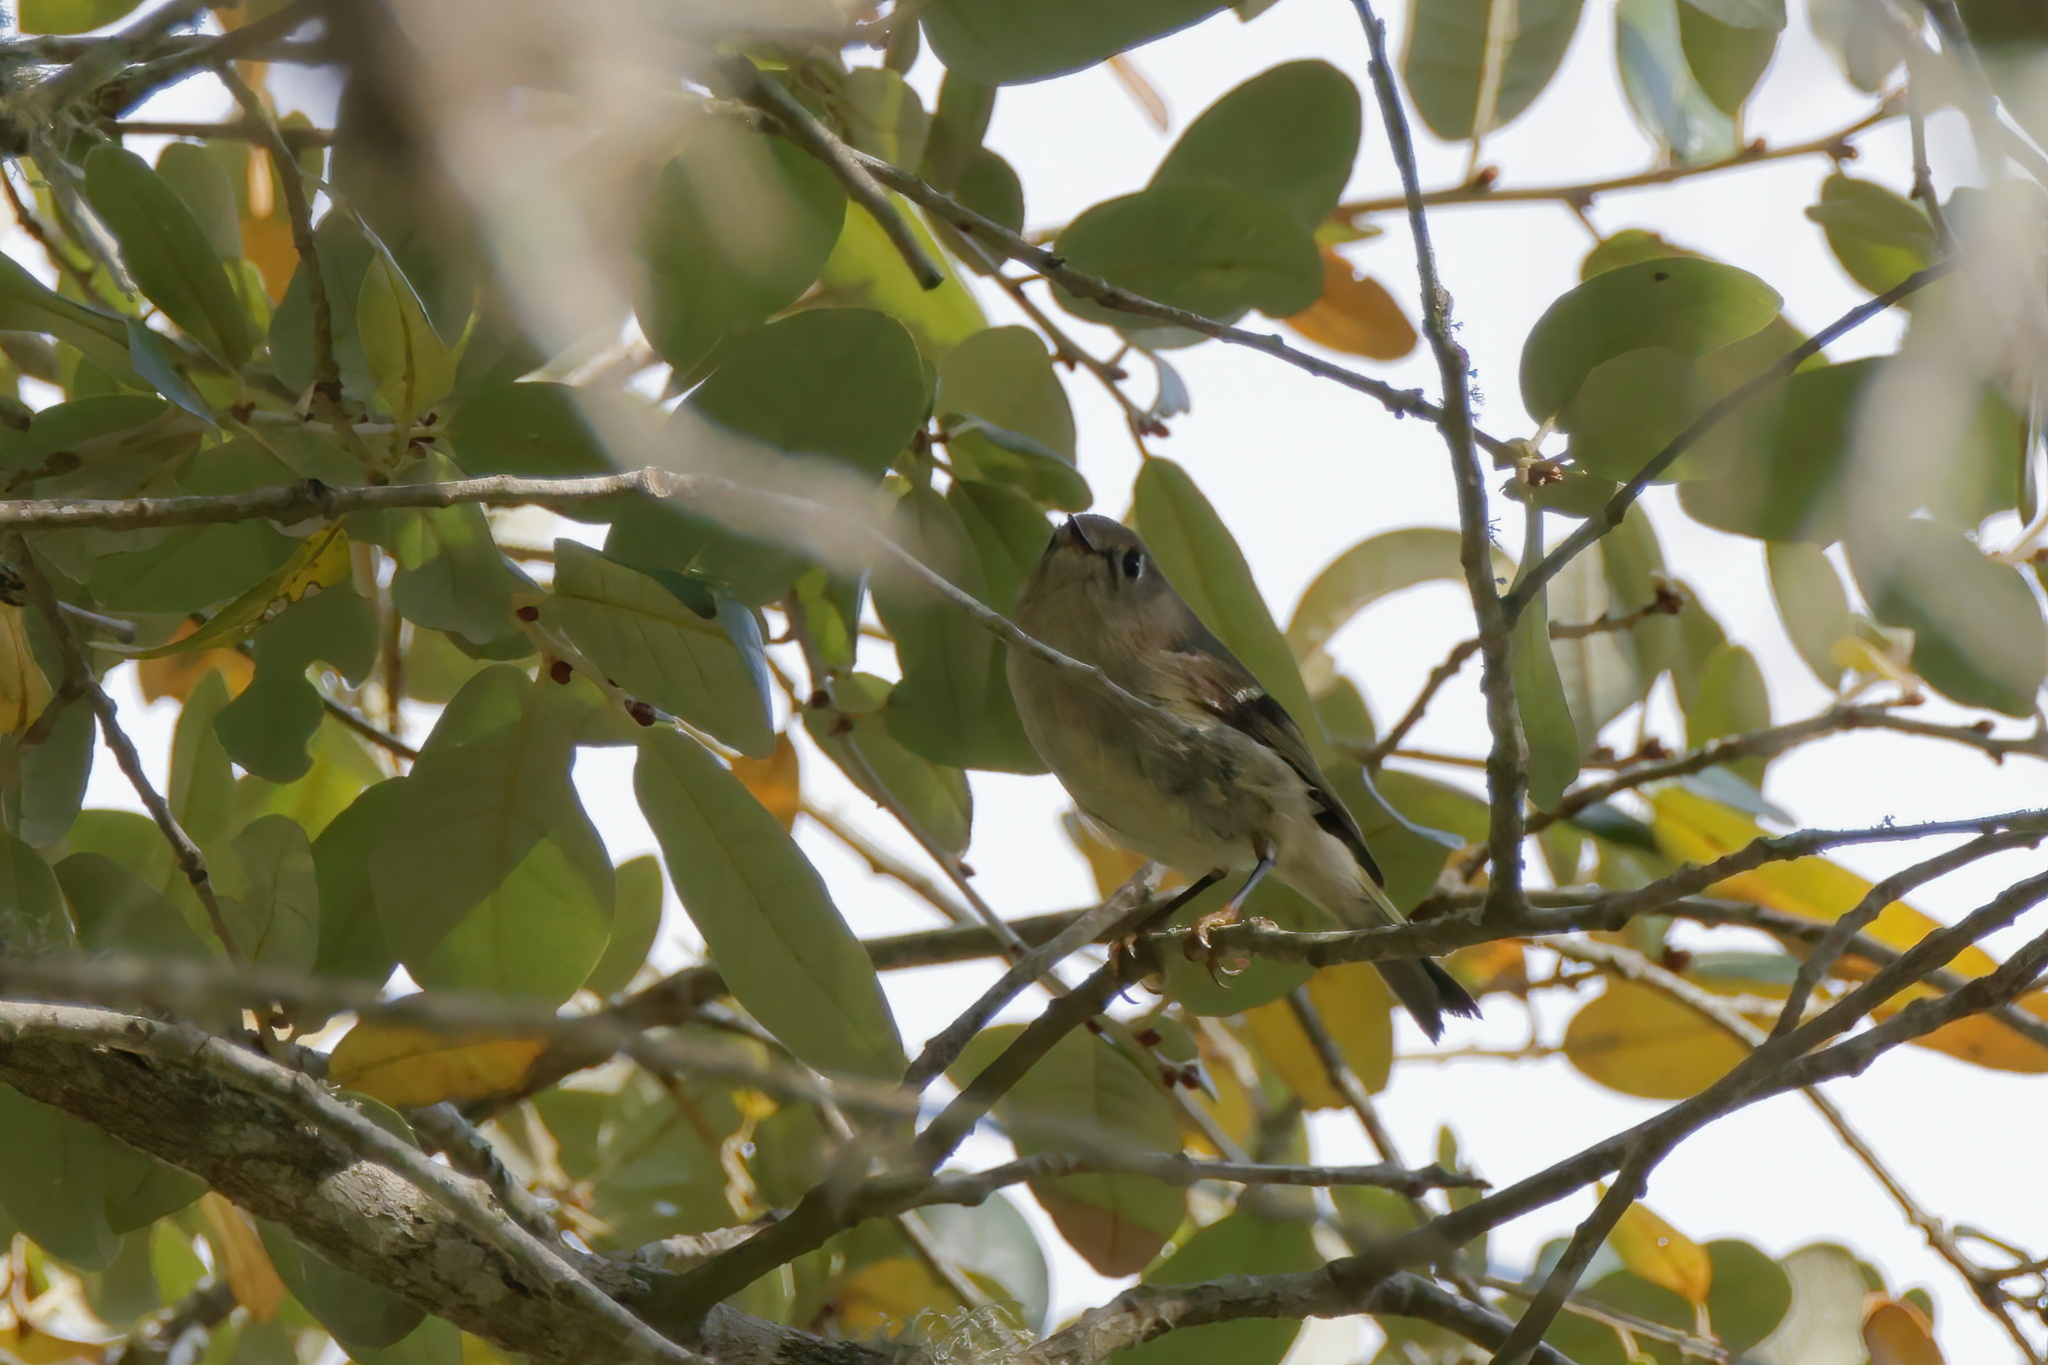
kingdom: Animalia
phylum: Chordata
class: Aves
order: Passeriformes
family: Regulidae
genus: Regulus
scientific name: Regulus calendula
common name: Ruby-crowned kinglet
